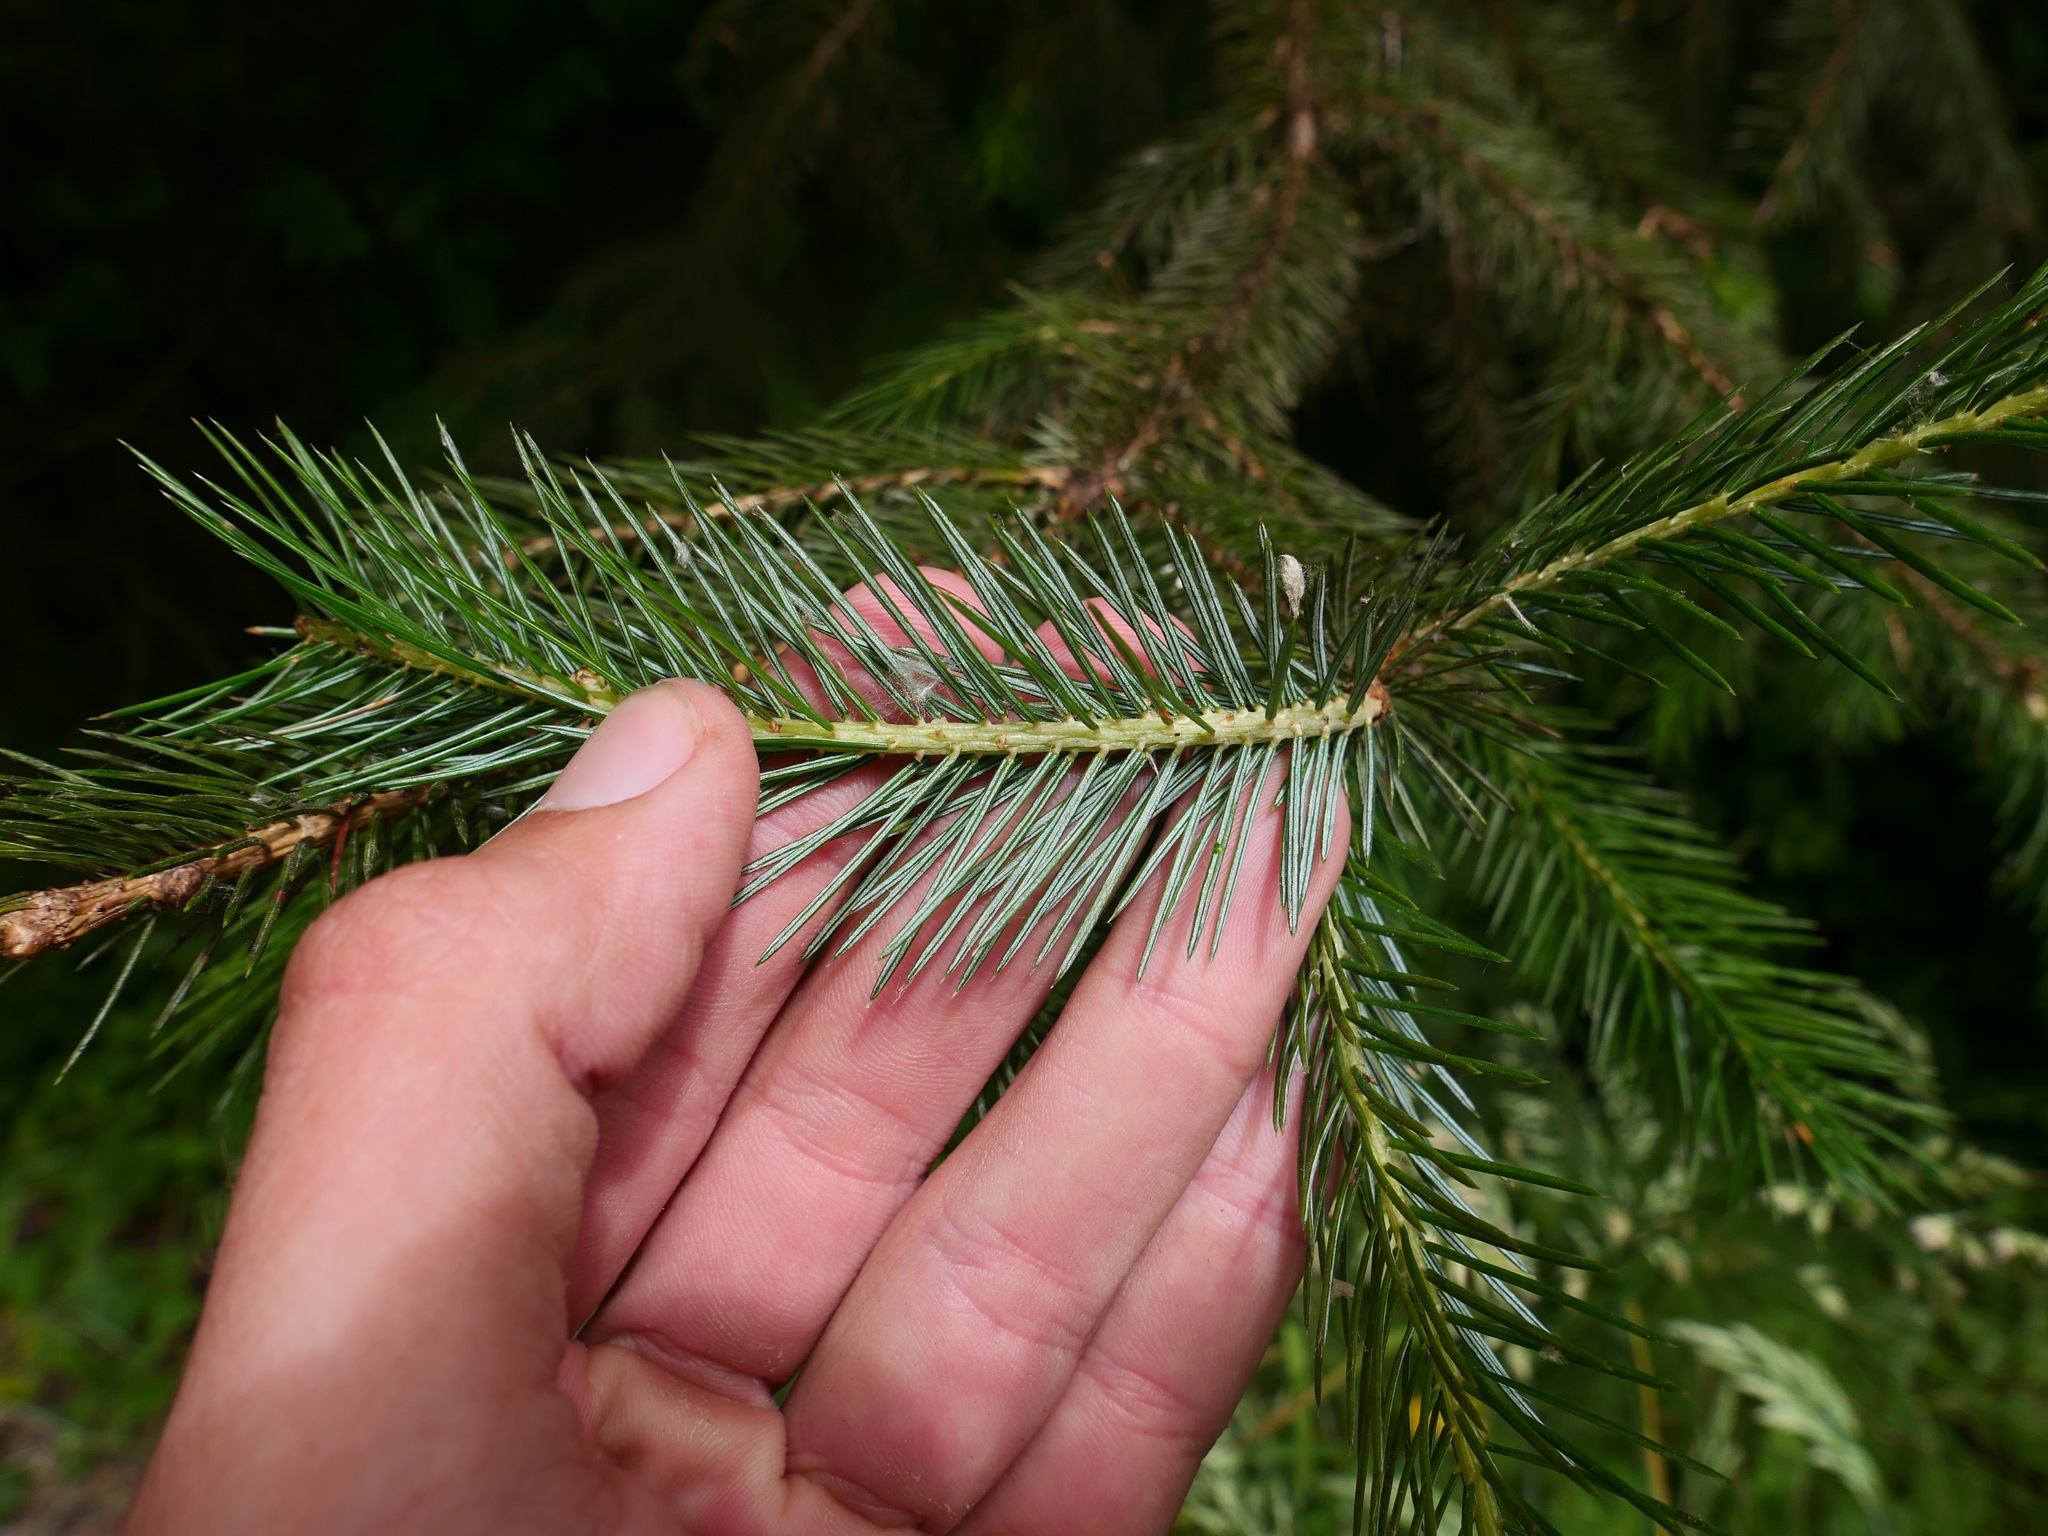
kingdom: Plantae
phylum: Tracheophyta
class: Pinopsida
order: Pinales
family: Pinaceae
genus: Picea
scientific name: Picea sitchensis
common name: Sitka spruce
